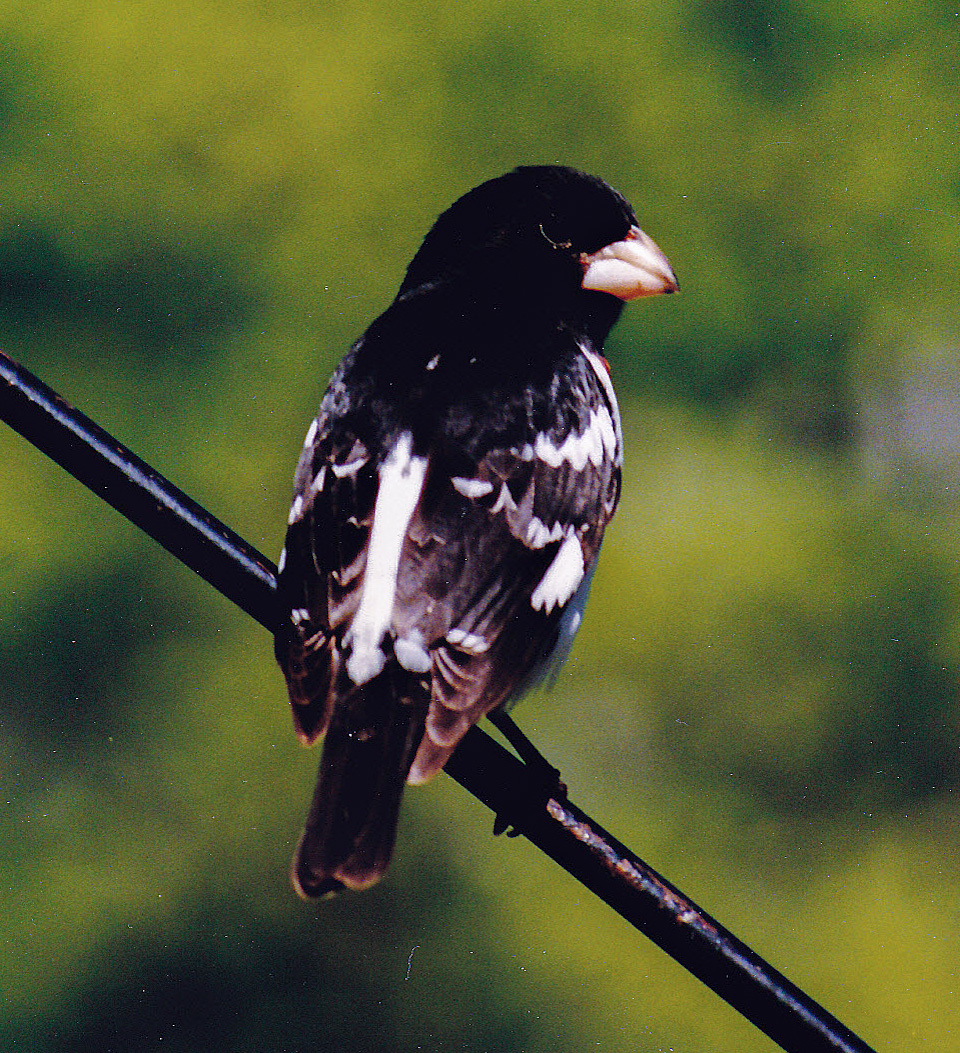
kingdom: Animalia
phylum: Chordata
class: Aves
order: Passeriformes
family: Cardinalidae
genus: Pheucticus
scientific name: Pheucticus ludovicianus
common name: Rose-breasted grosbeak
